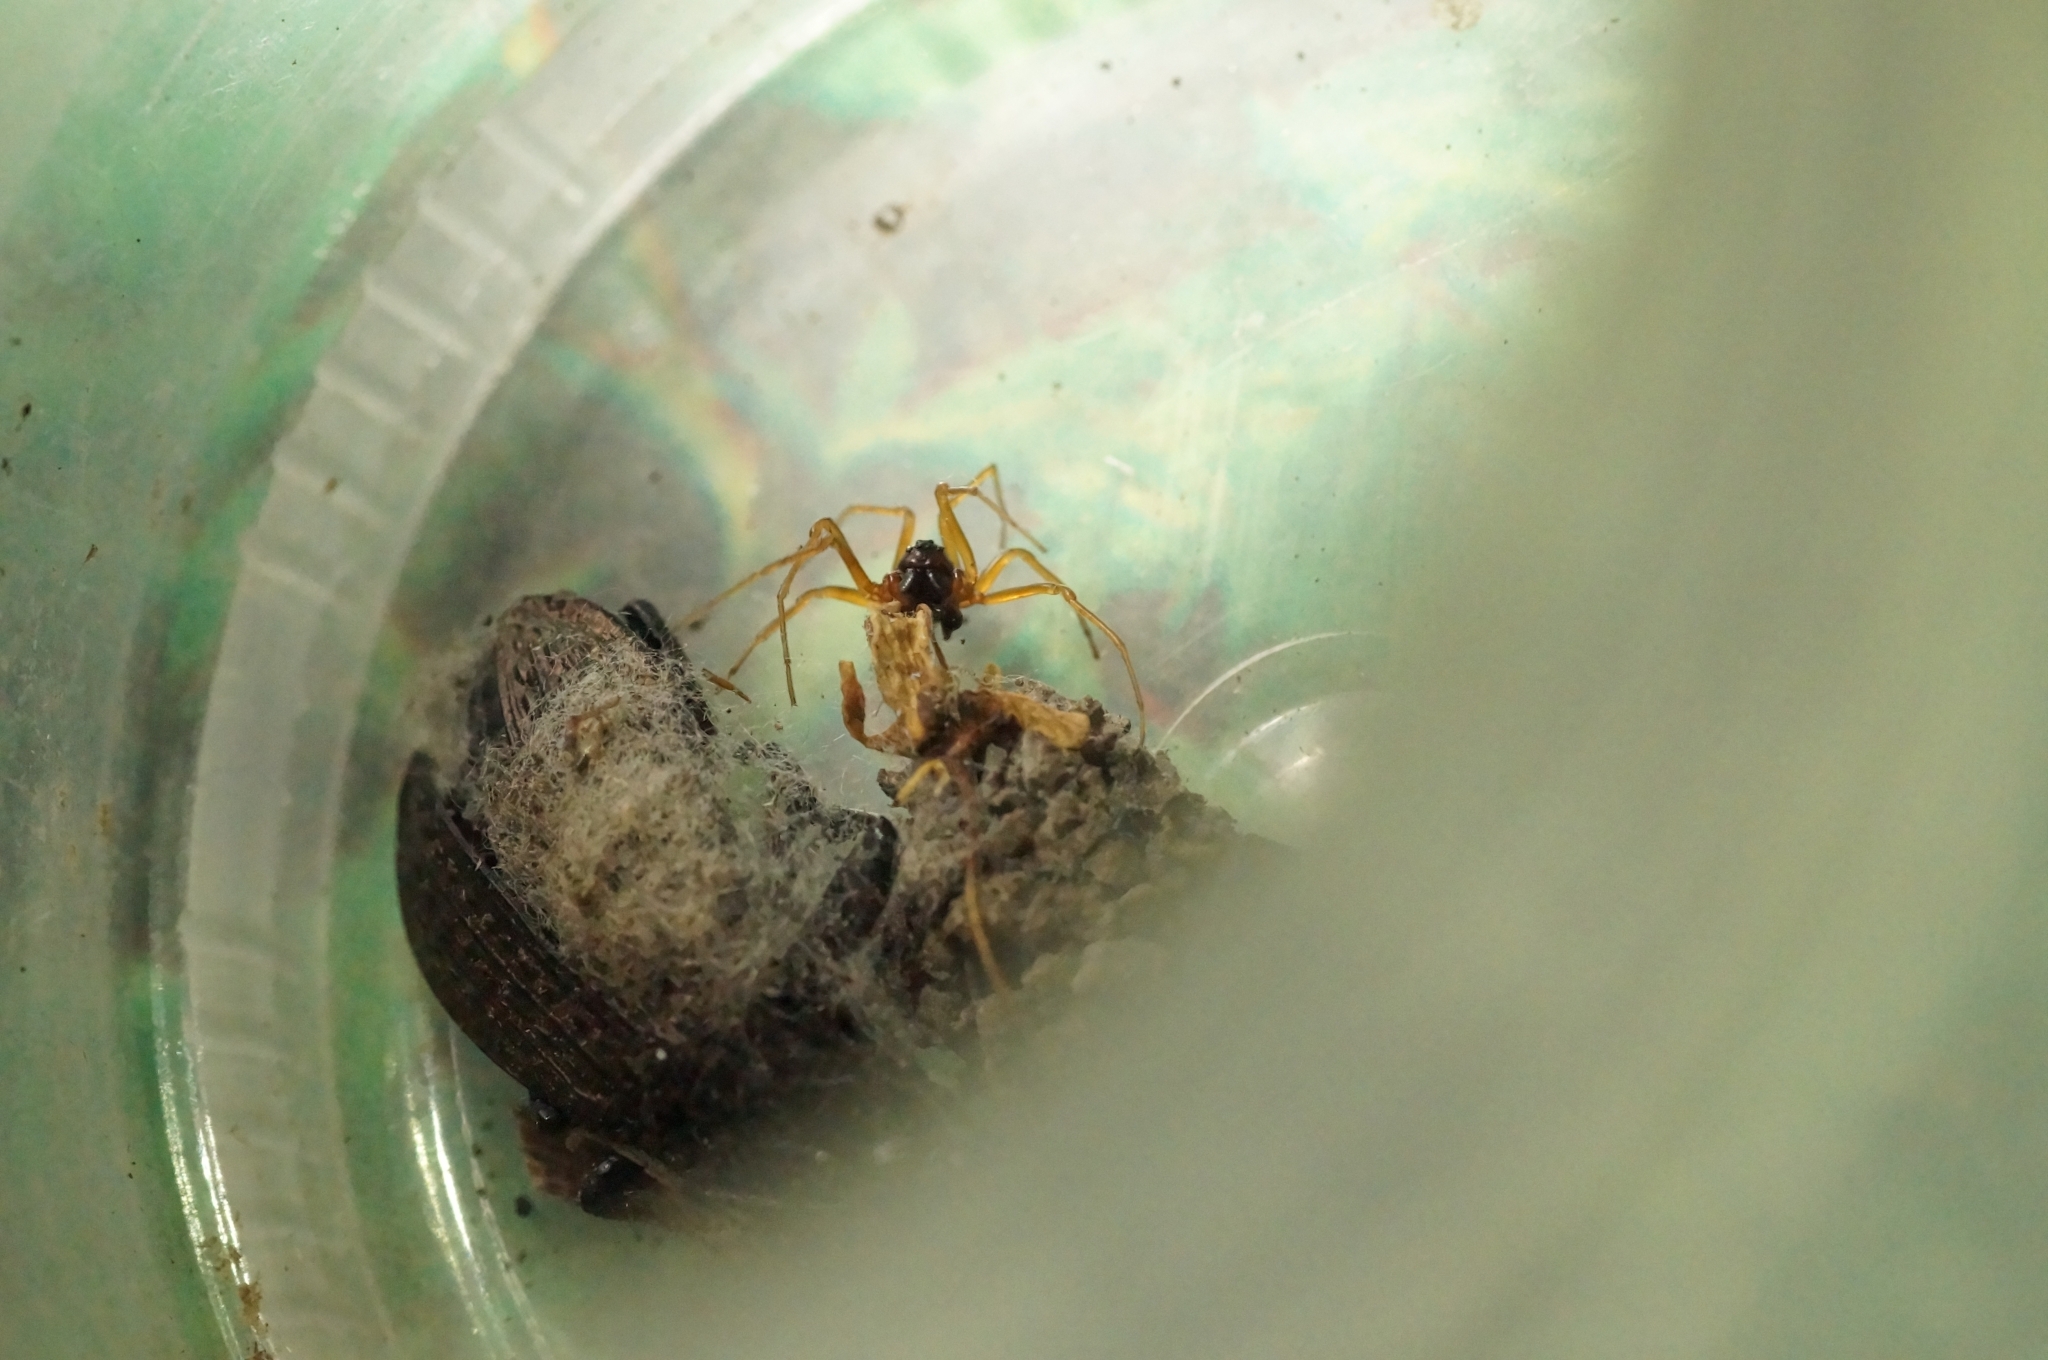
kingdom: Animalia
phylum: Arthropoda
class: Arachnida
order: Araneae
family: Tetragnathidae
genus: Pachygnatha
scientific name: Pachygnatha listeri
